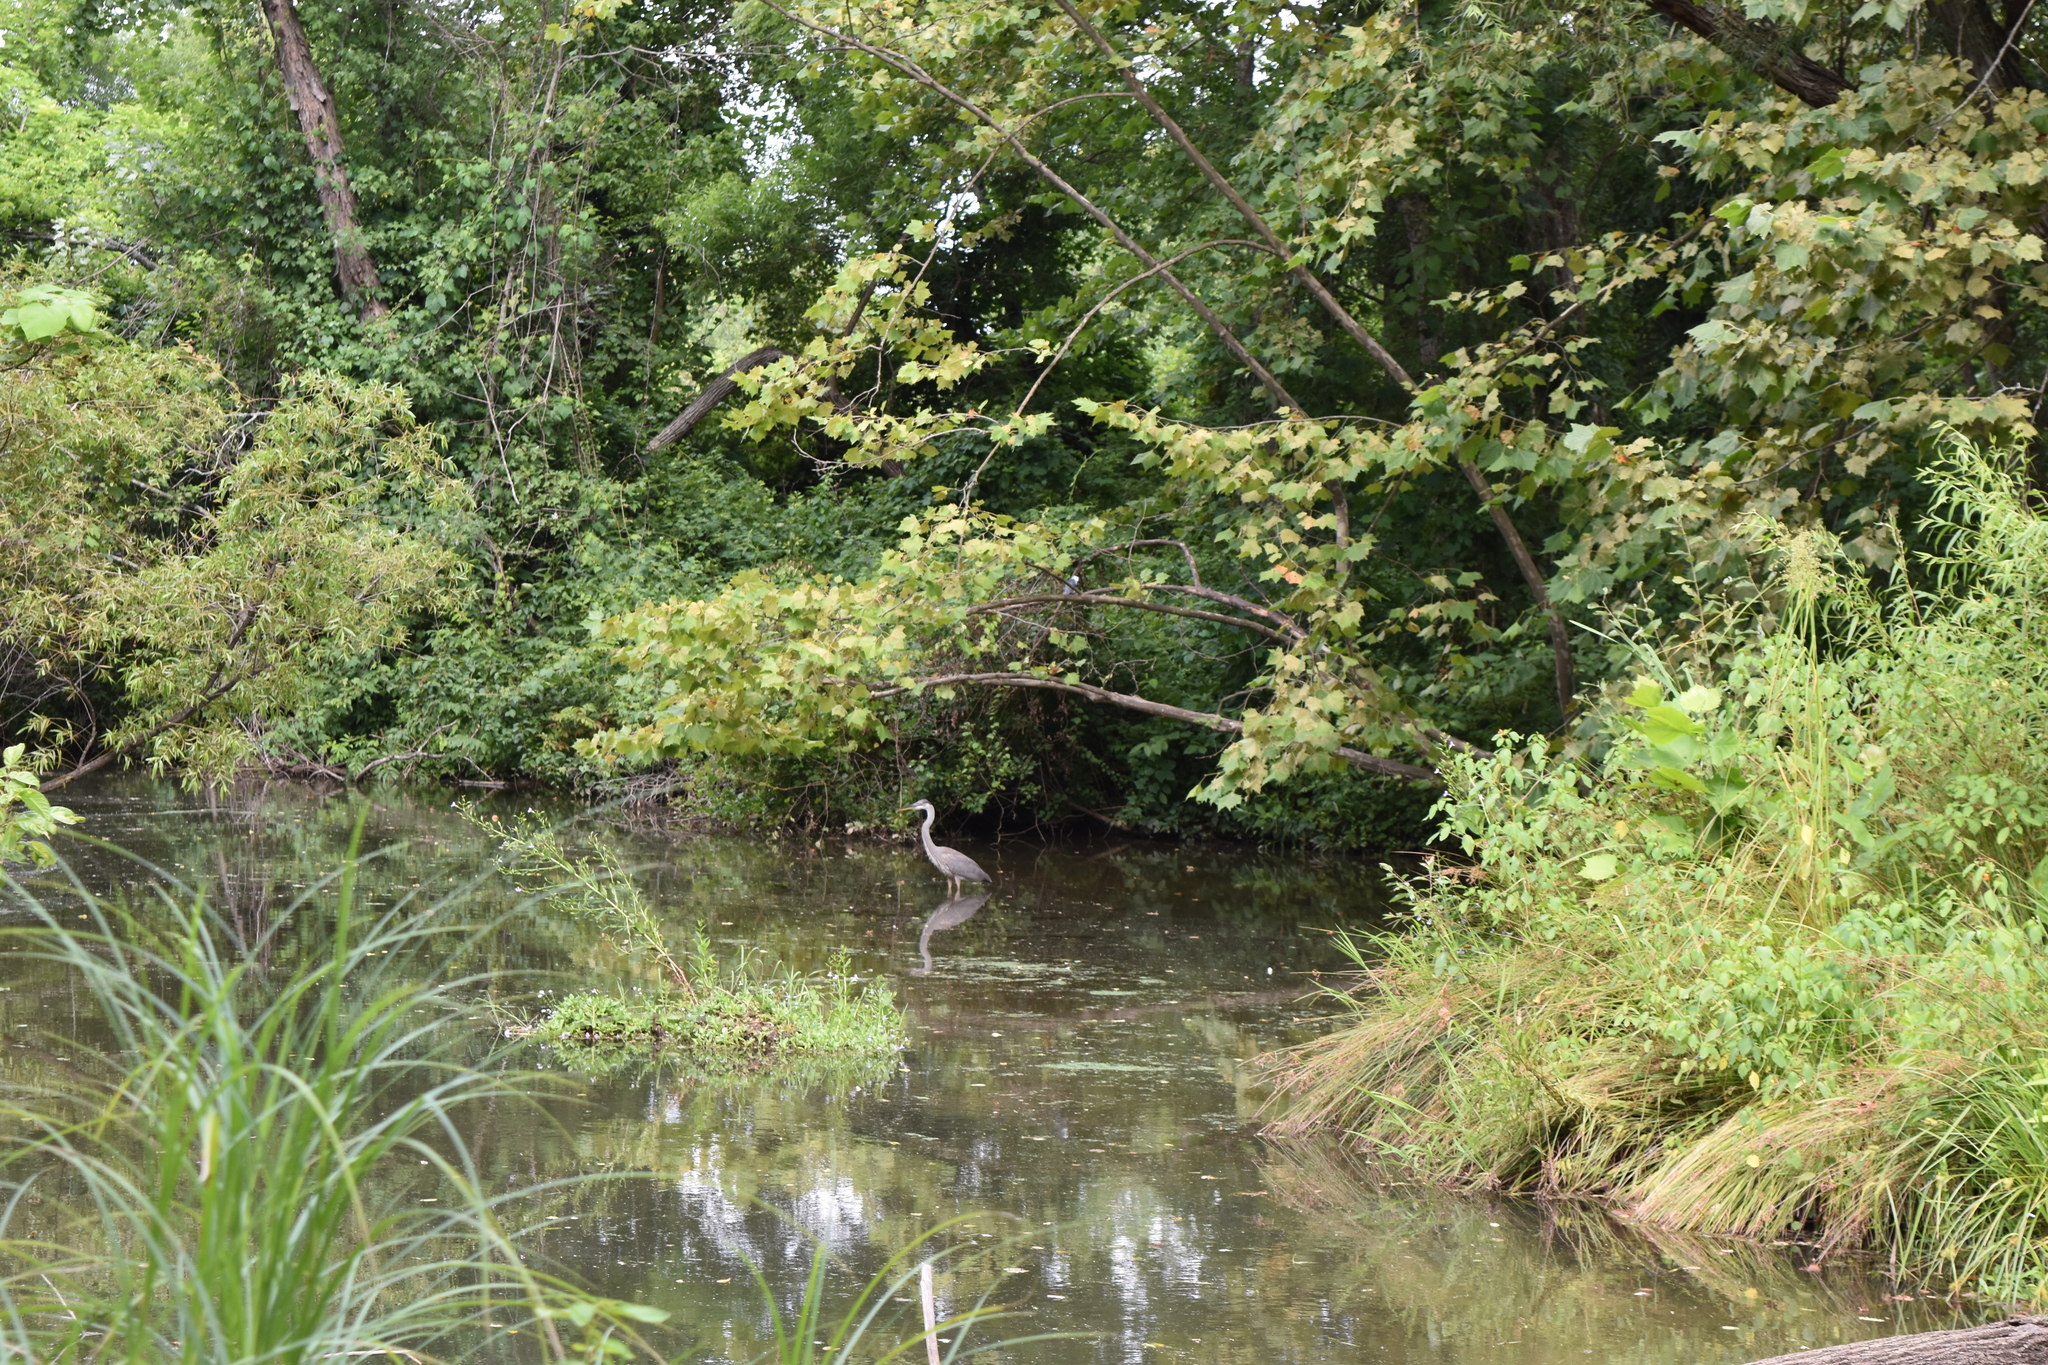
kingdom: Animalia
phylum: Chordata
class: Aves
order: Pelecaniformes
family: Ardeidae
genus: Ardea
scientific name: Ardea herodias
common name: Great blue heron
